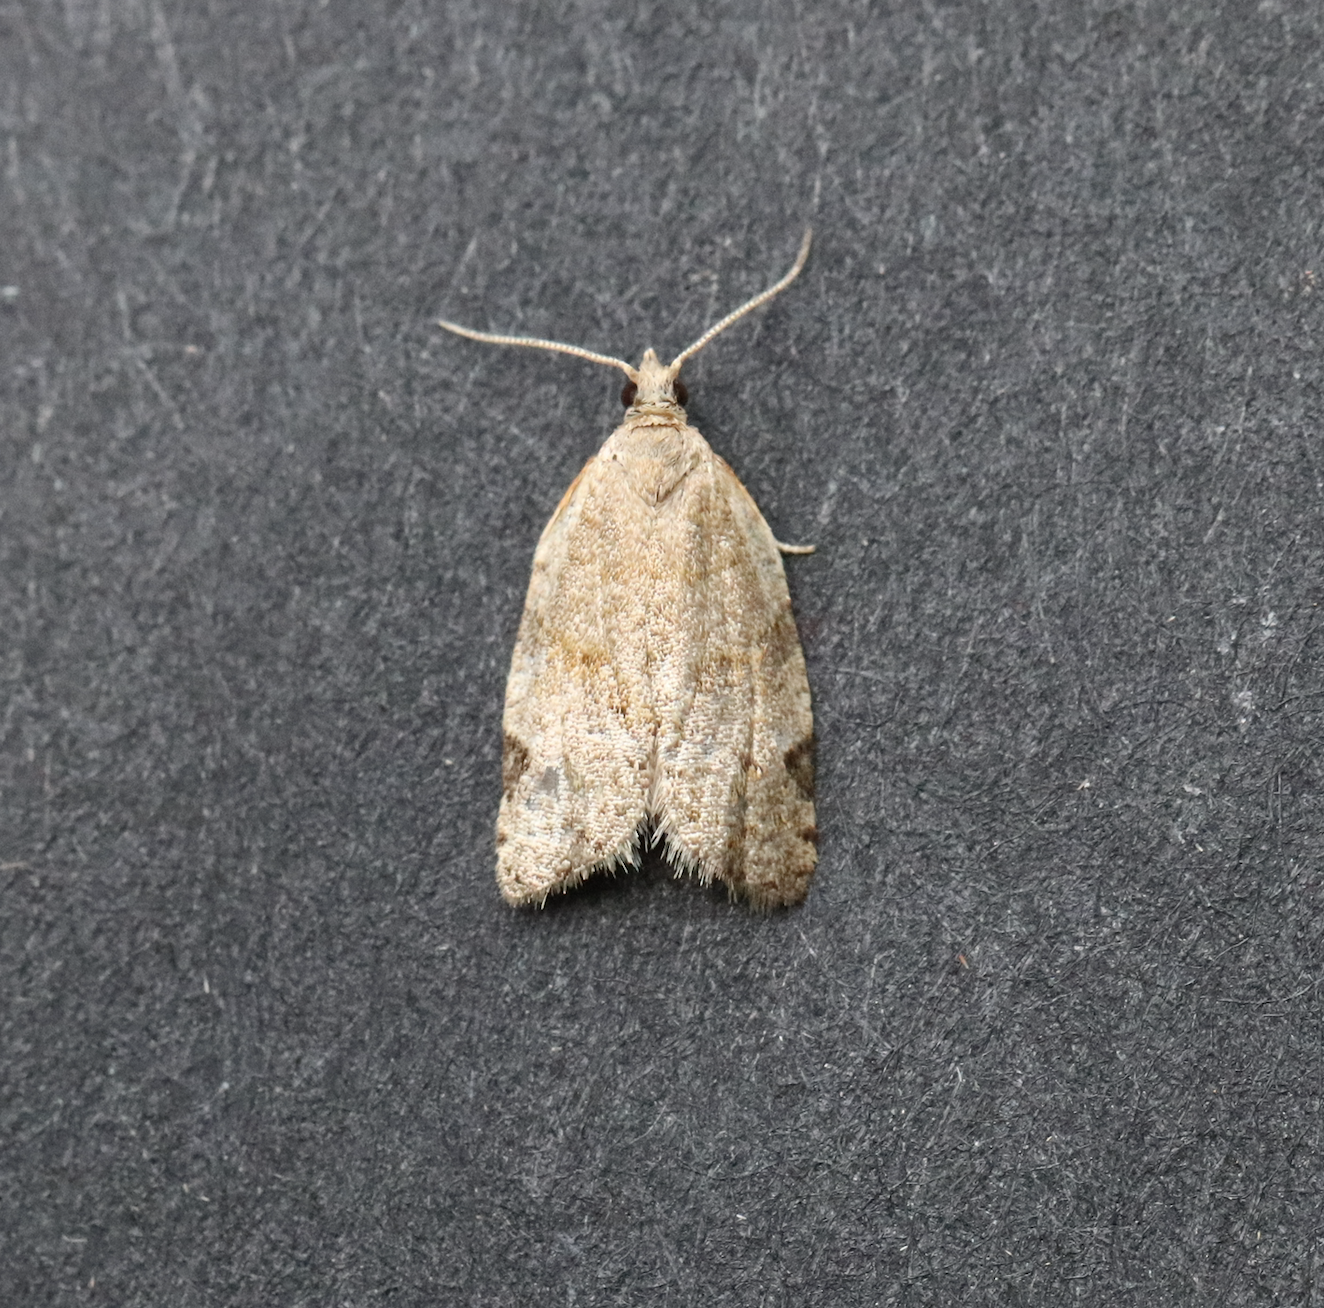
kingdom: Animalia
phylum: Arthropoda
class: Insecta
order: Lepidoptera
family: Tortricidae
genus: Clepsis
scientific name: Clepsis virescana
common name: Greenish apple moth
